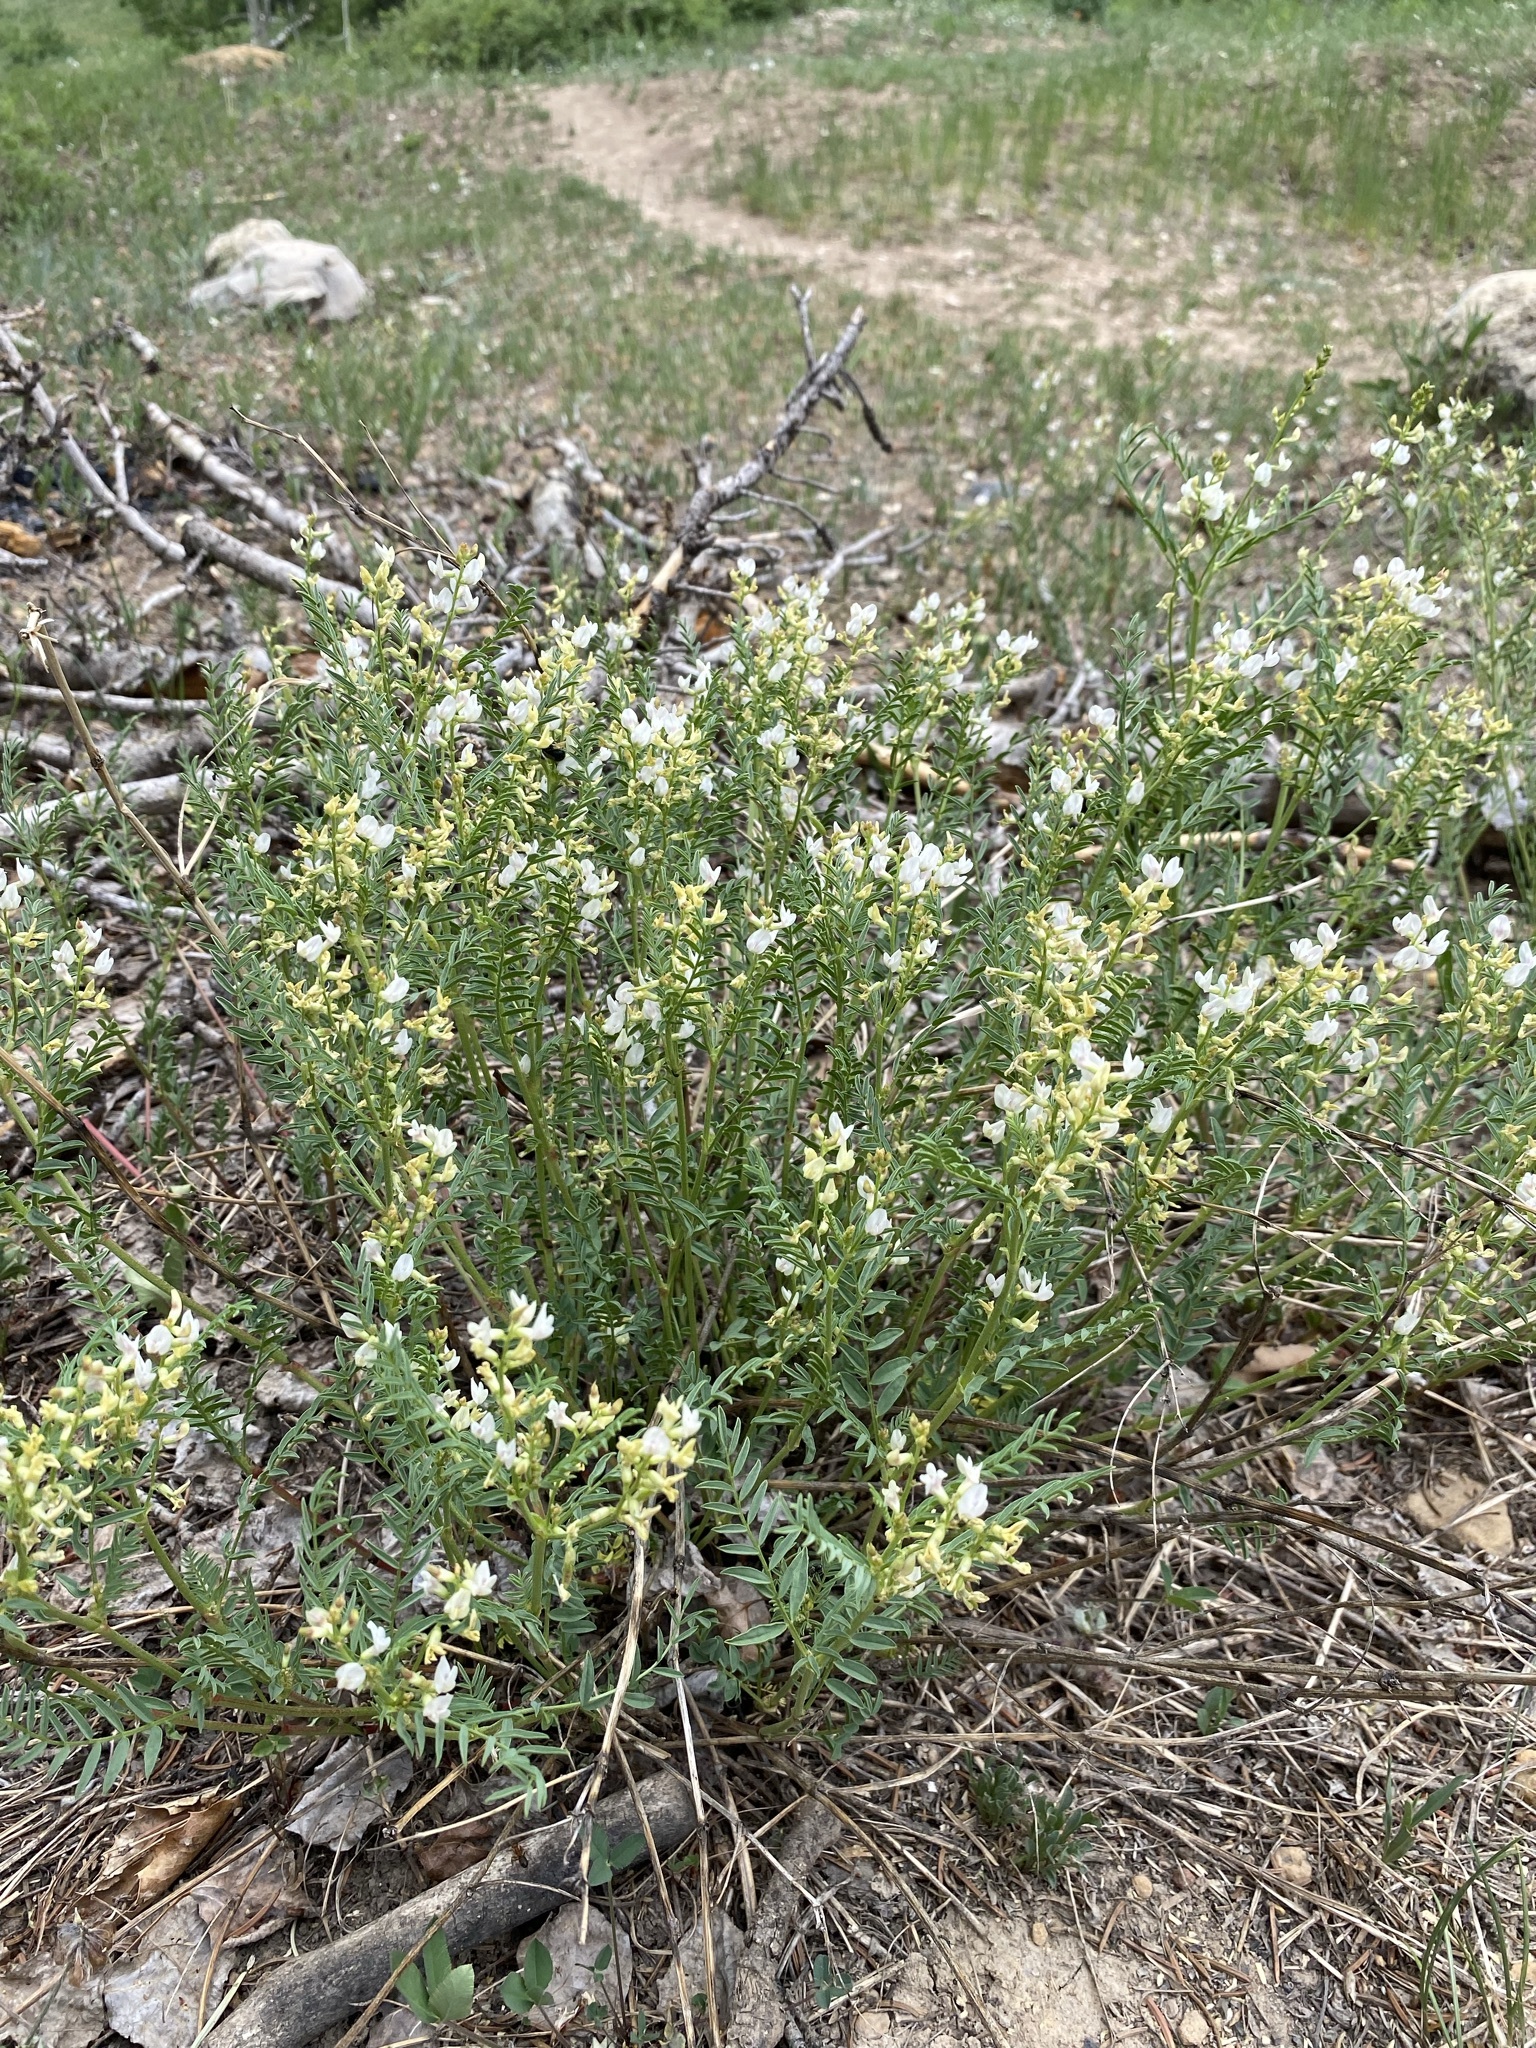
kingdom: Plantae
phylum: Tracheophyta
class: Magnoliopsida
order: Fabales
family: Fabaceae
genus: Astragalus
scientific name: Astragalus tenellus
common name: Pulse milk-vetch
